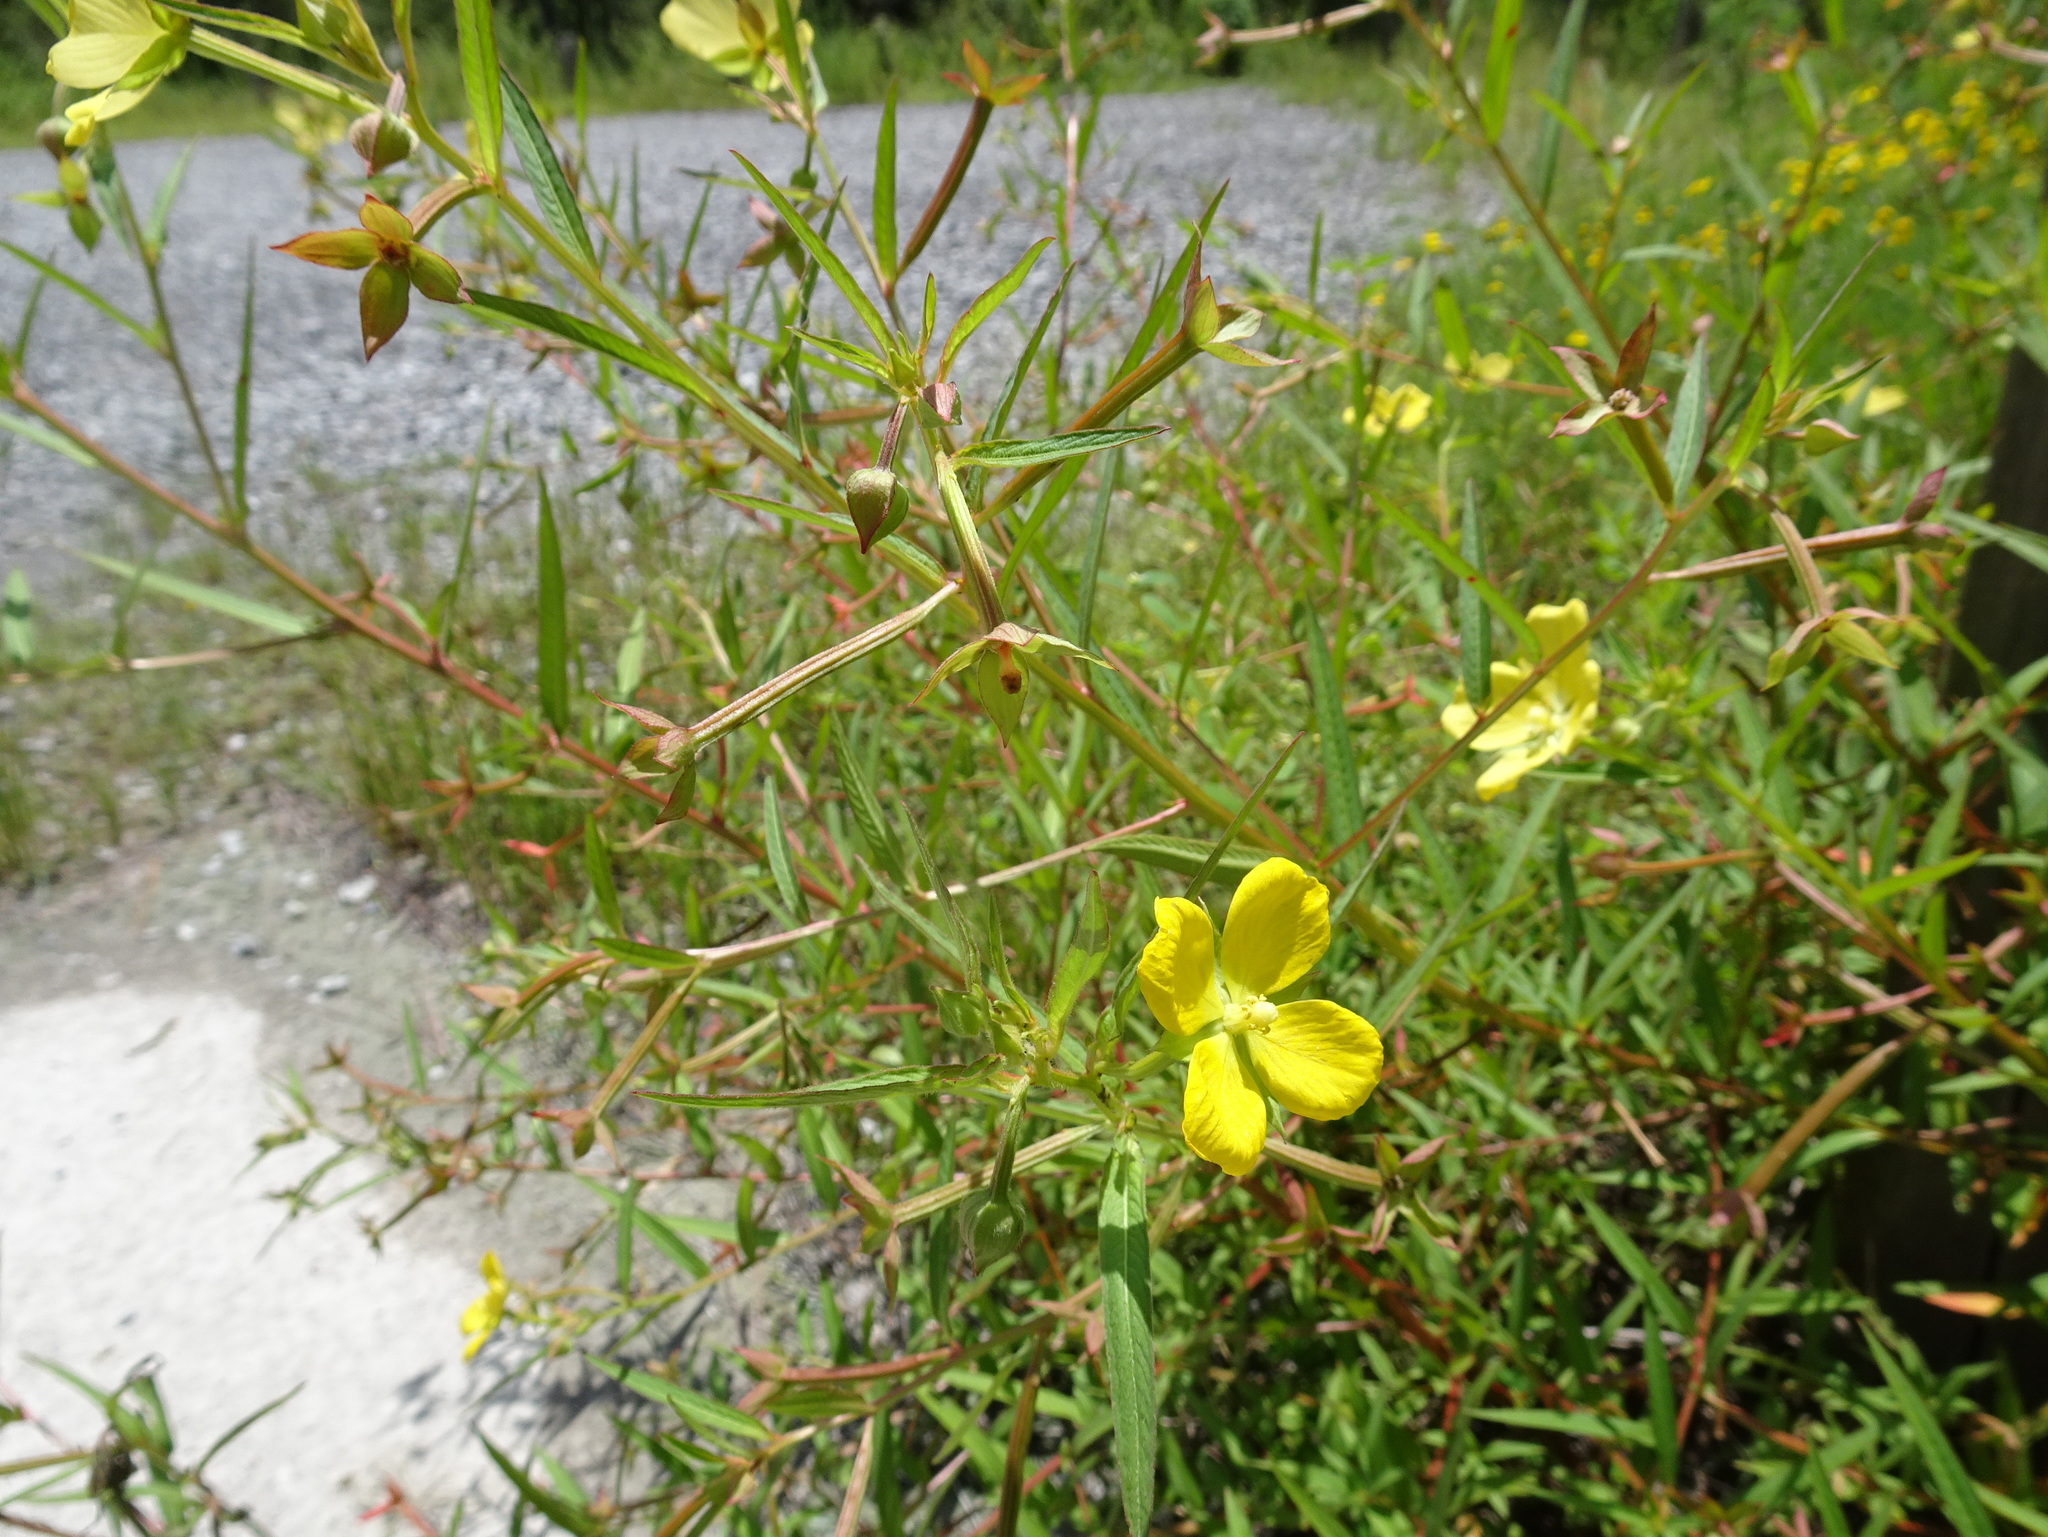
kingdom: Plantae
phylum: Tracheophyta
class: Magnoliopsida
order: Myrtales
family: Onagraceae
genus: Ludwigia
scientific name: Ludwigia octovalvis
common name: Water-primrose
